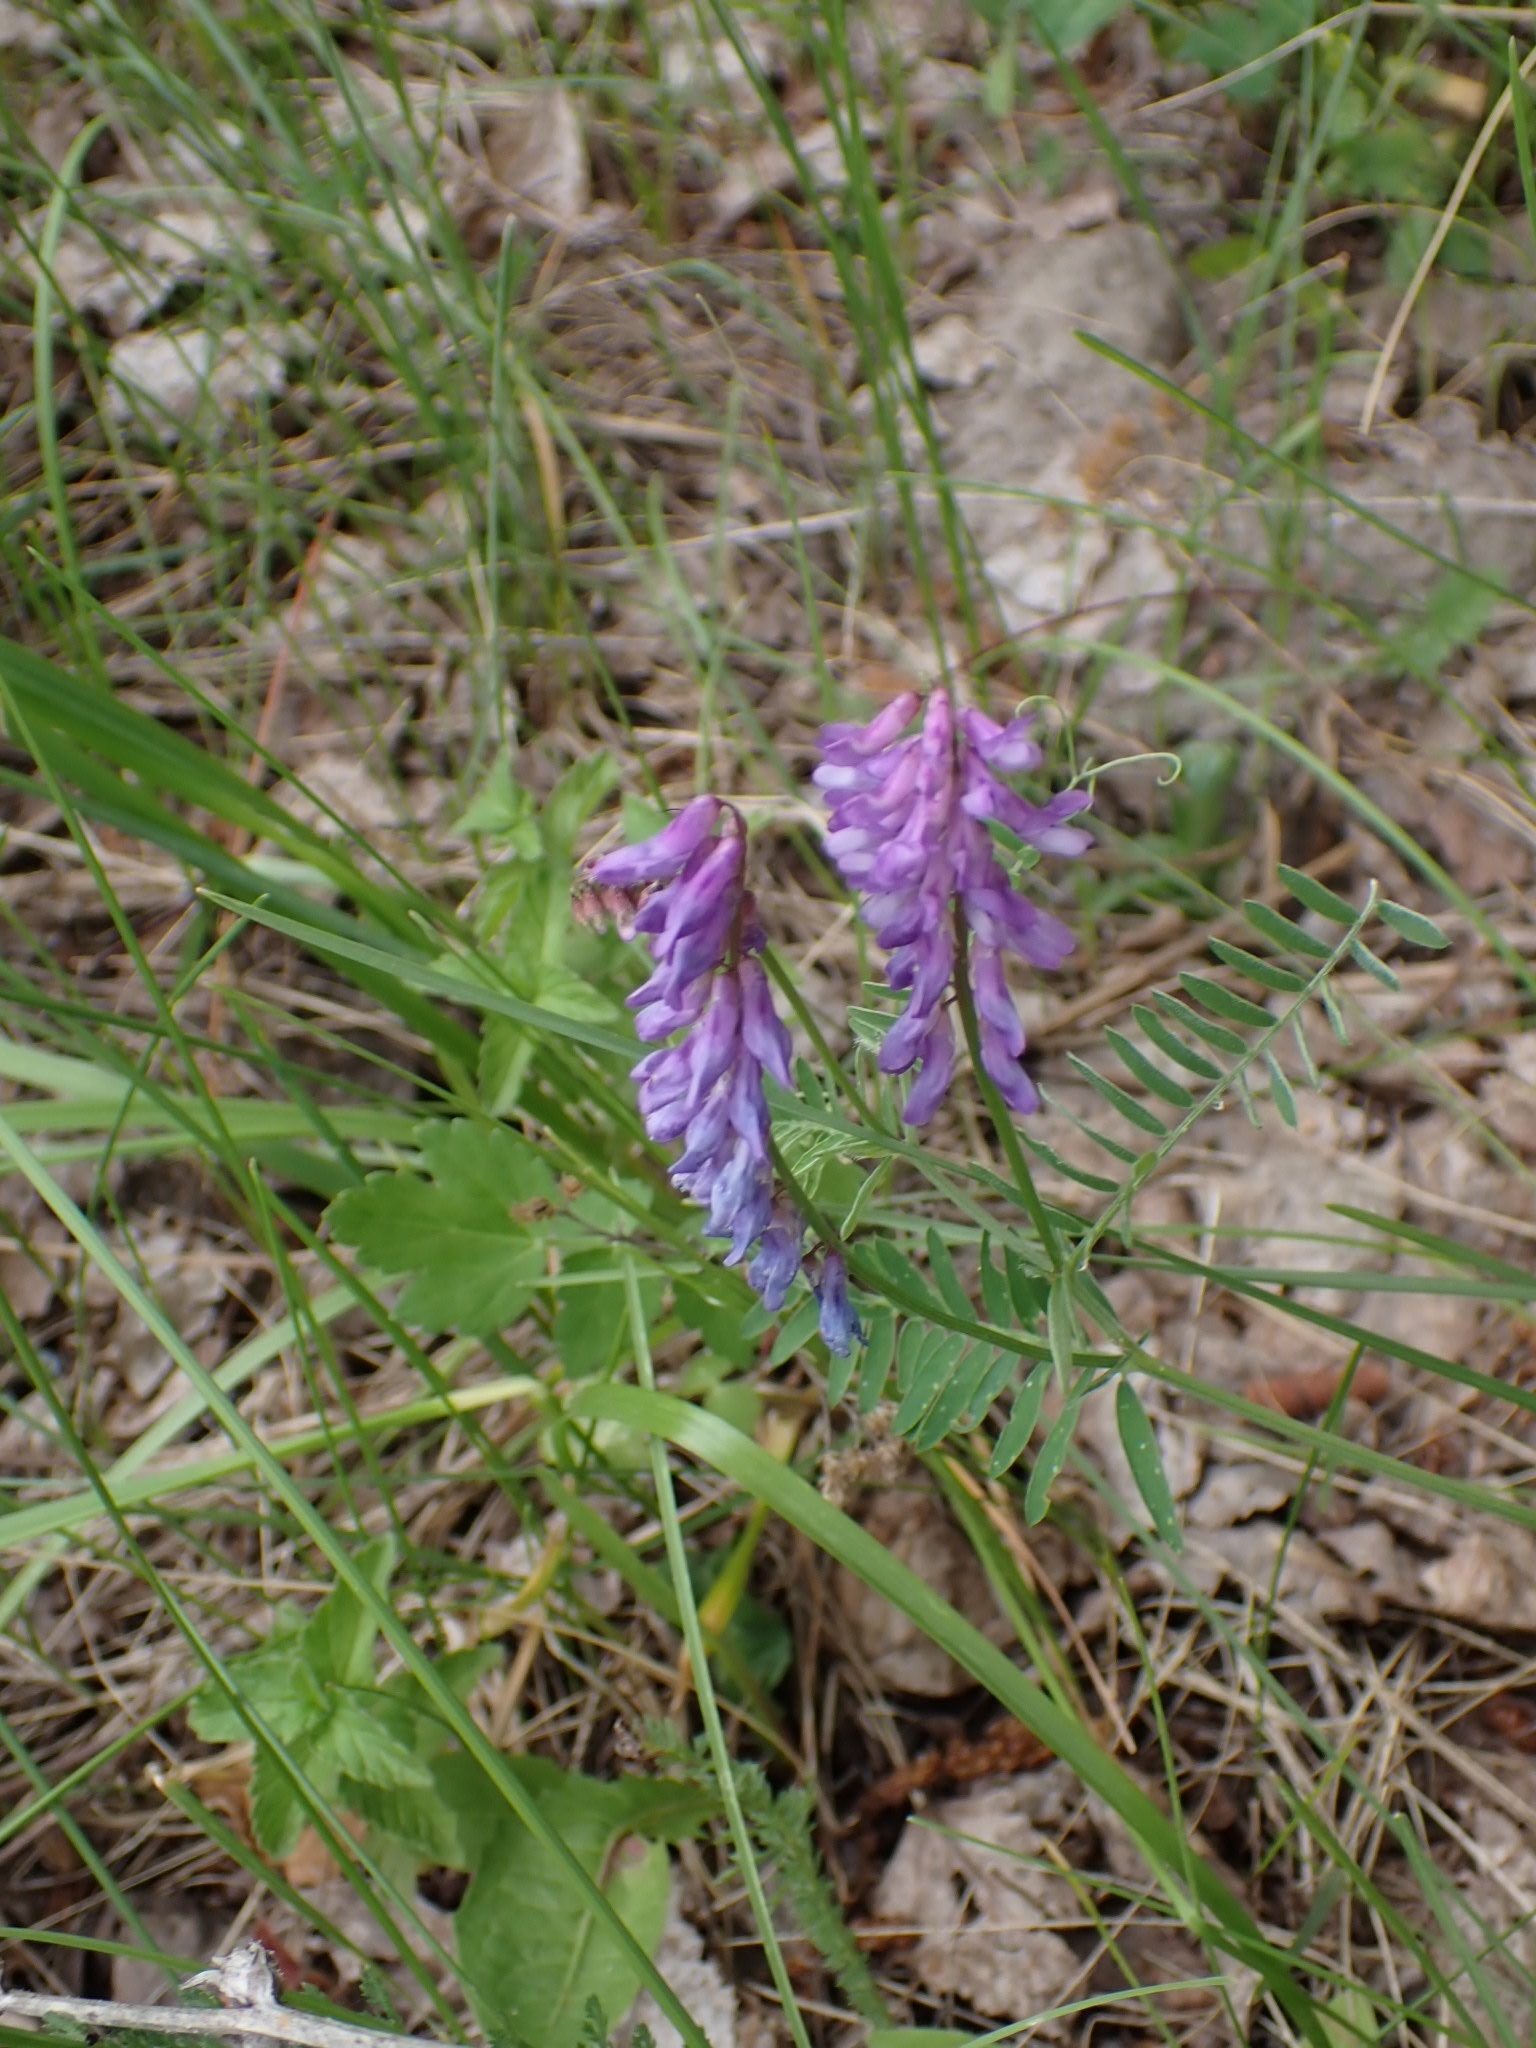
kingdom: Plantae
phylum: Tracheophyta
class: Magnoliopsida
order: Fabales
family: Fabaceae
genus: Vicia
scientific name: Vicia cracca
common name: Bird vetch
